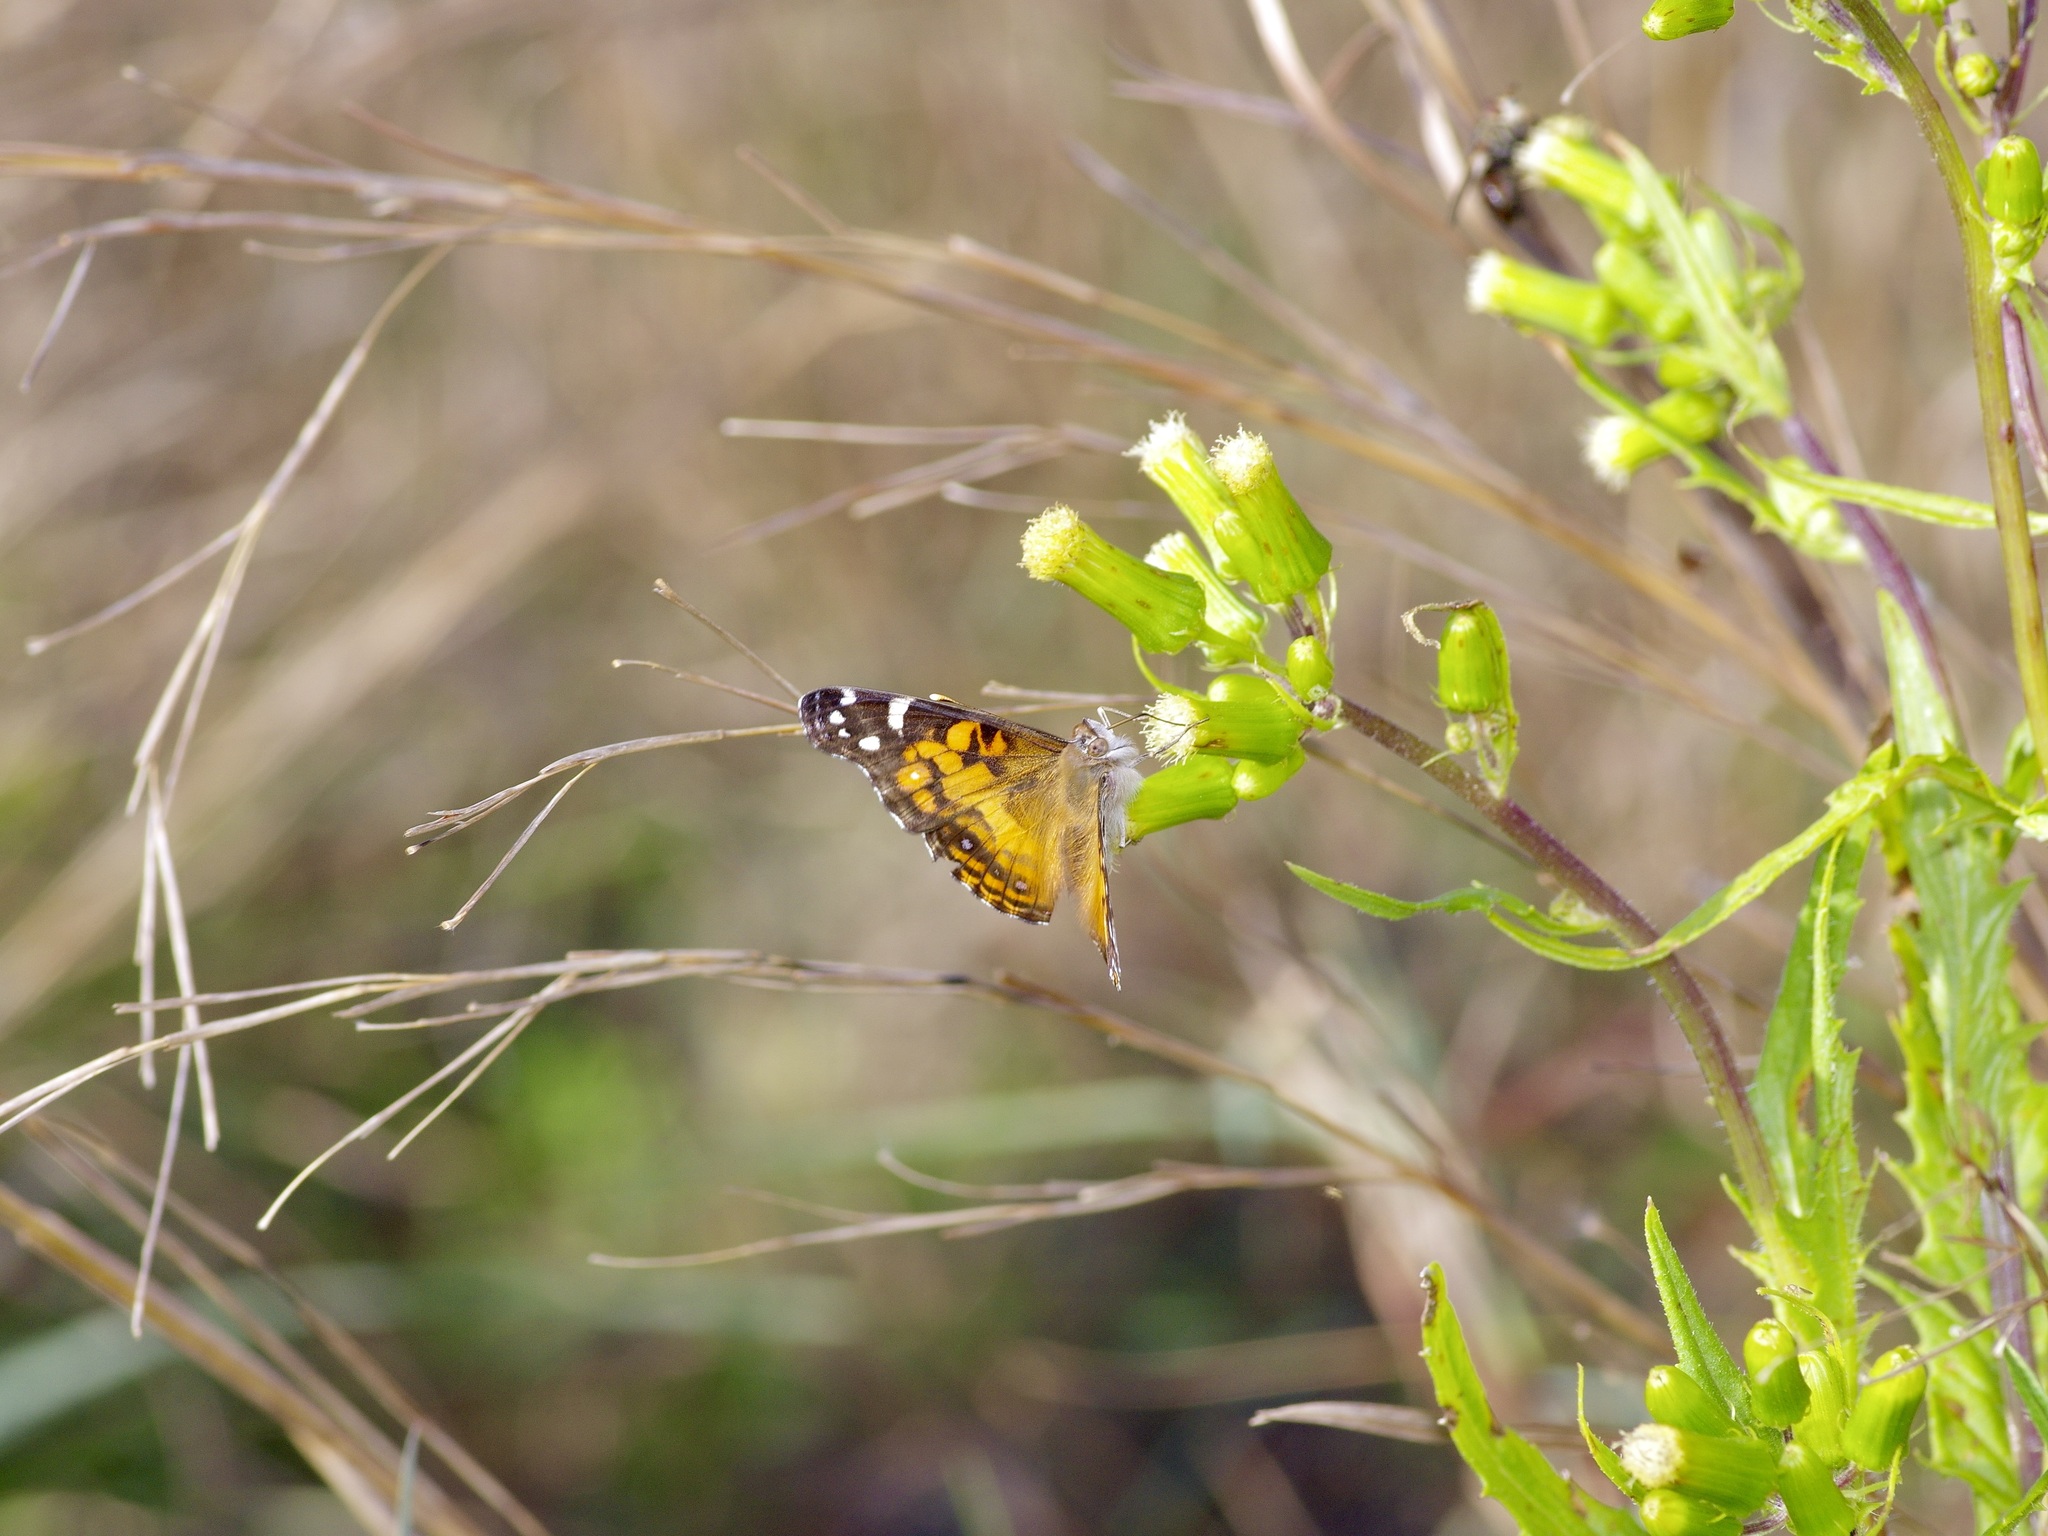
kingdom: Animalia
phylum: Arthropoda
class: Insecta
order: Lepidoptera
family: Nymphalidae
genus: Vanessa
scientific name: Vanessa virginiensis
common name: American lady
